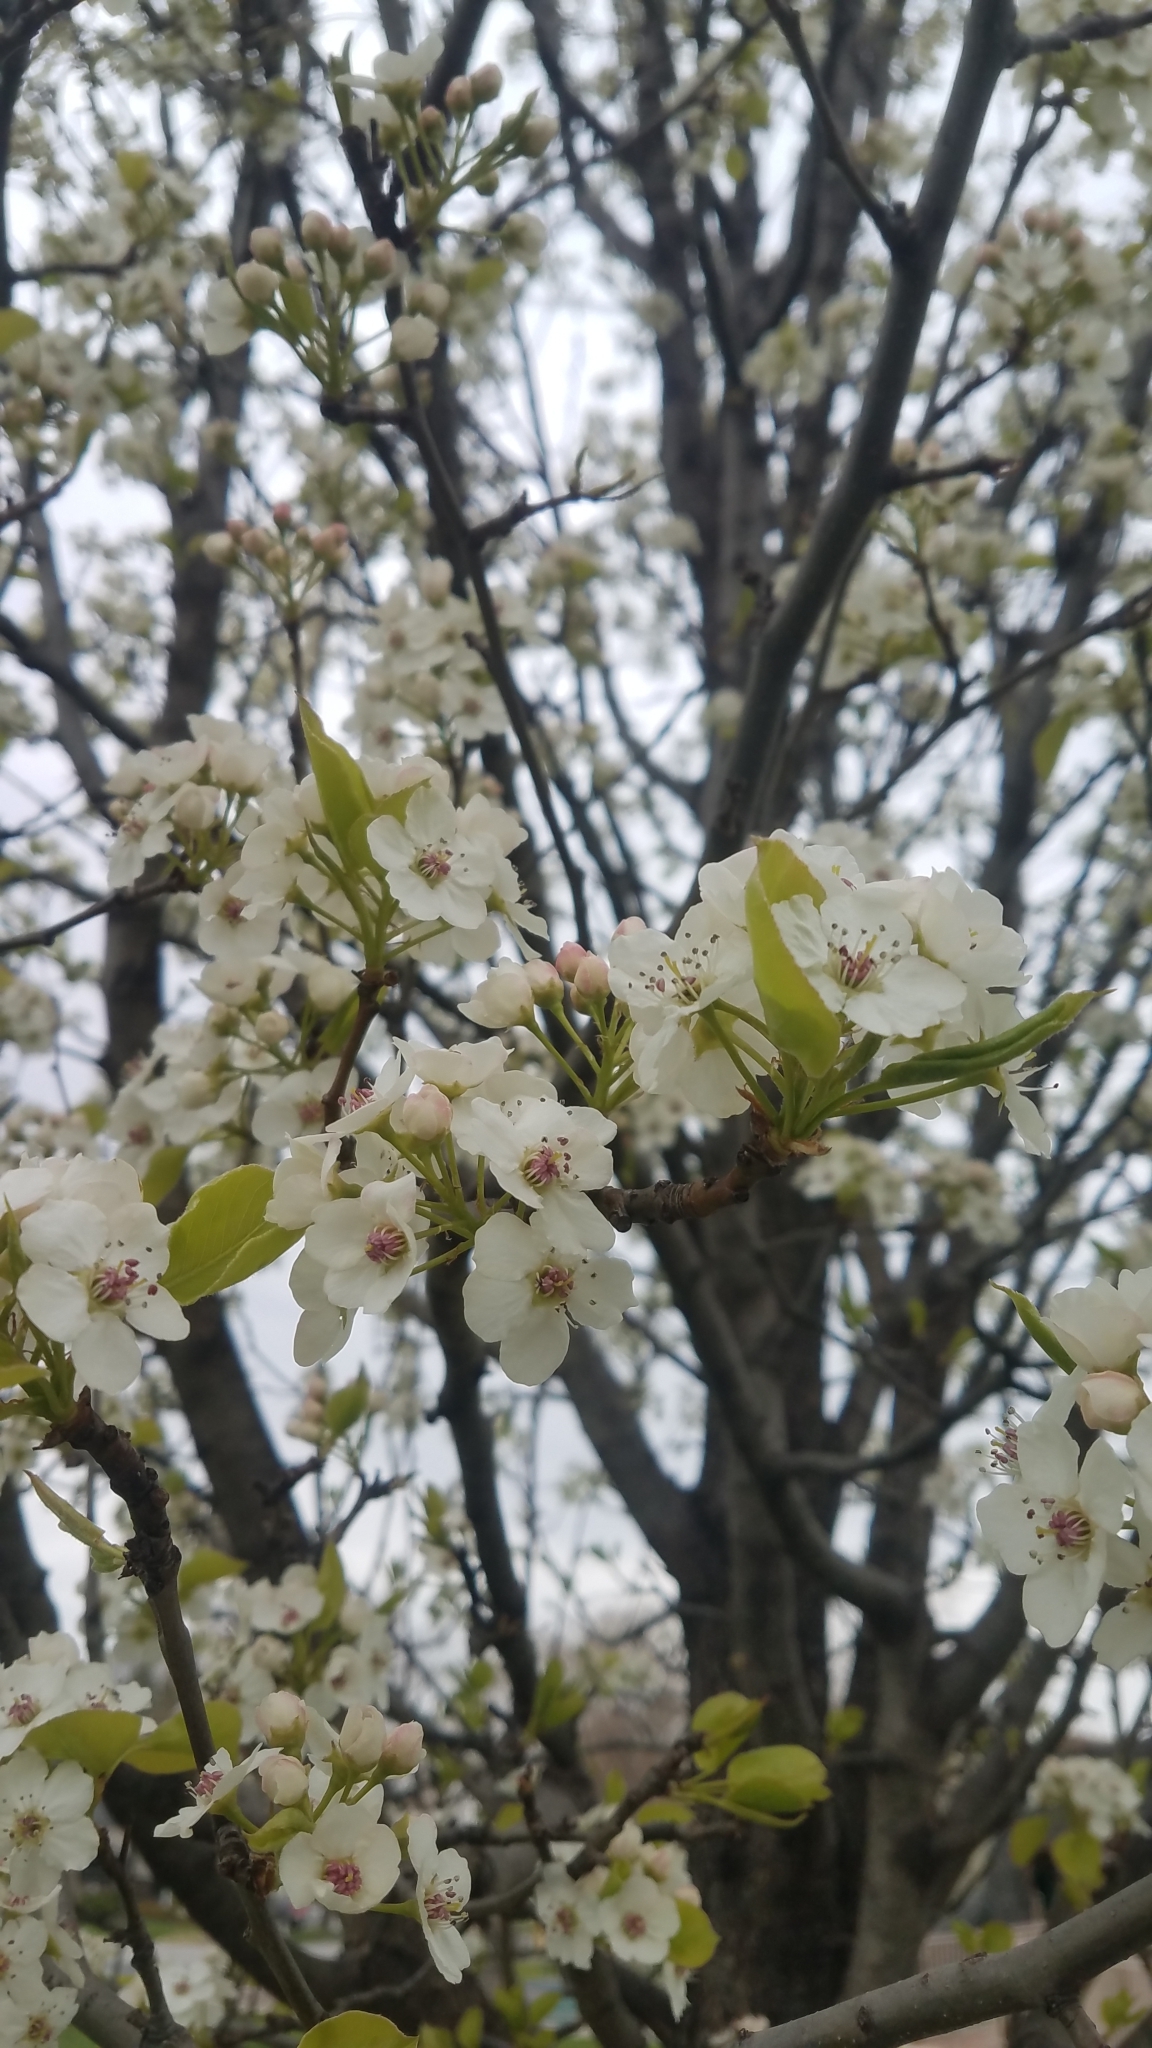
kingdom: Plantae
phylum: Tracheophyta
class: Magnoliopsida
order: Rosales
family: Rosaceae
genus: Pyrus
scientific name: Pyrus calleryana
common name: Callery pear
